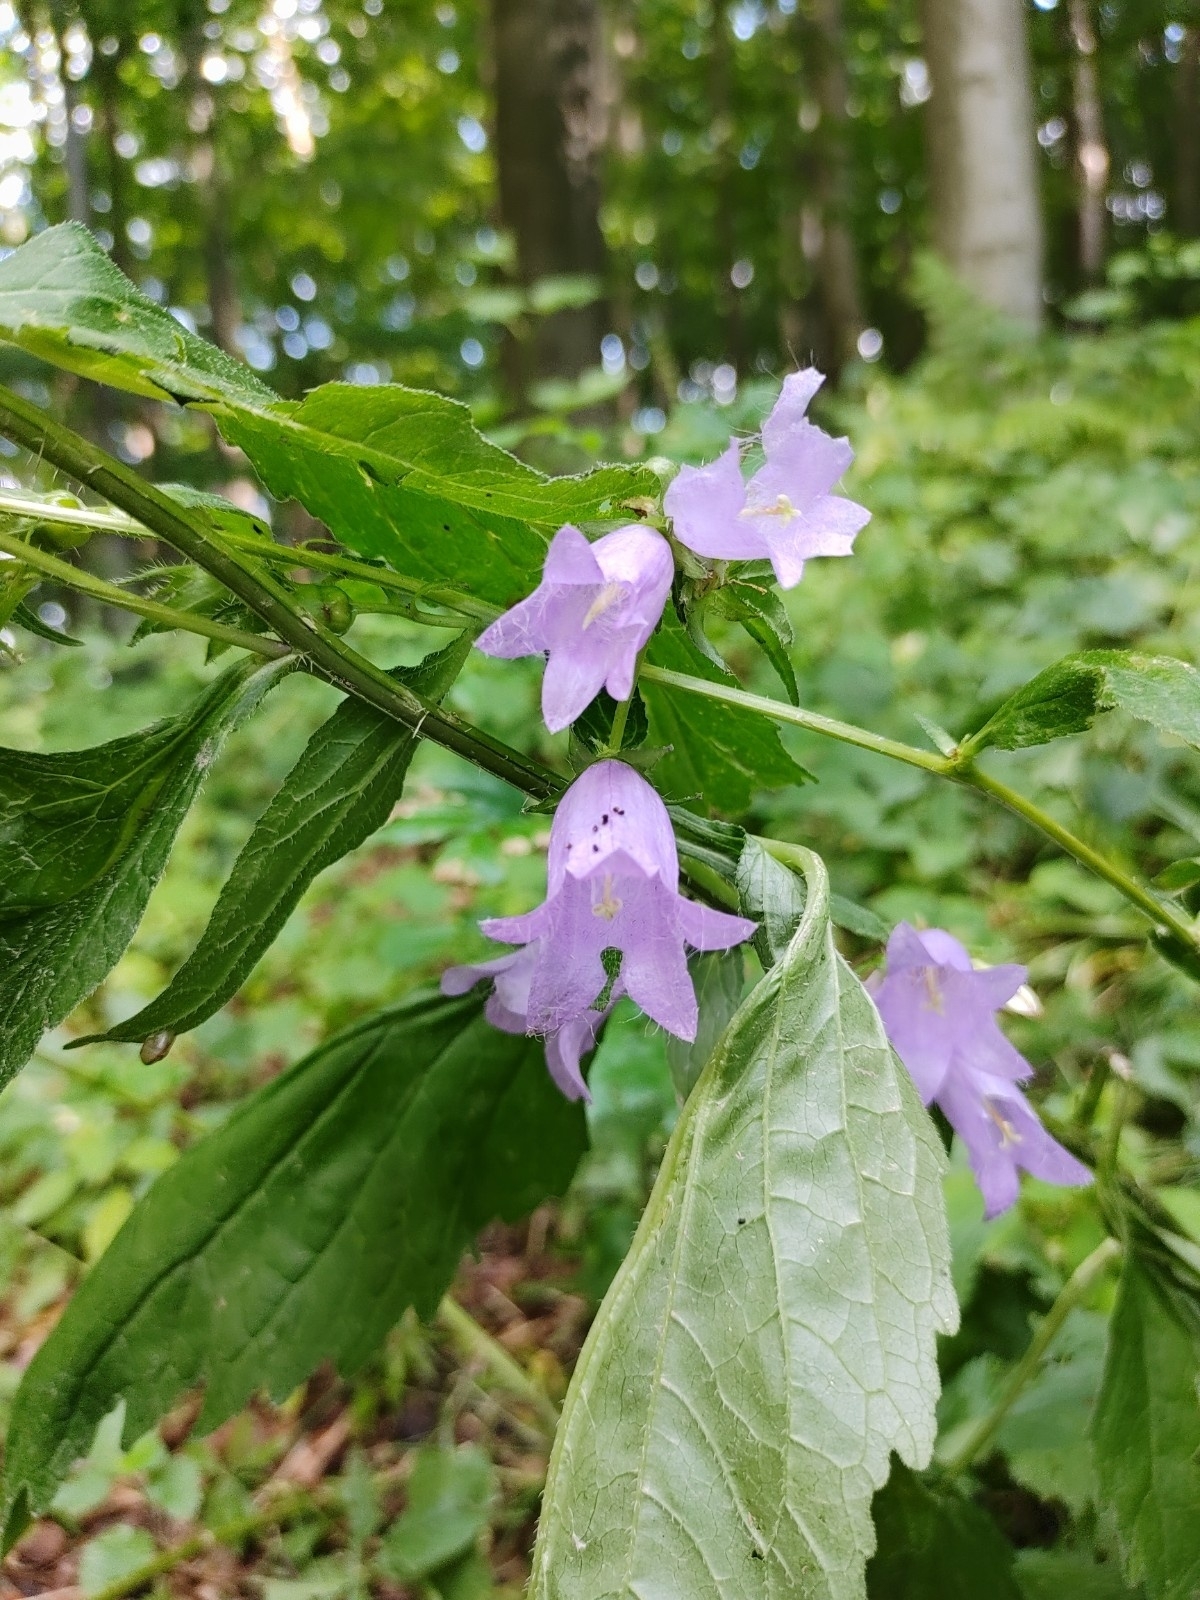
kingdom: Plantae
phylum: Tracheophyta
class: Magnoliopsida
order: Asterales
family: Campanulaceae
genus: Campanula
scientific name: Campanula trachelium
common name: Nettle-leaved bellflower
